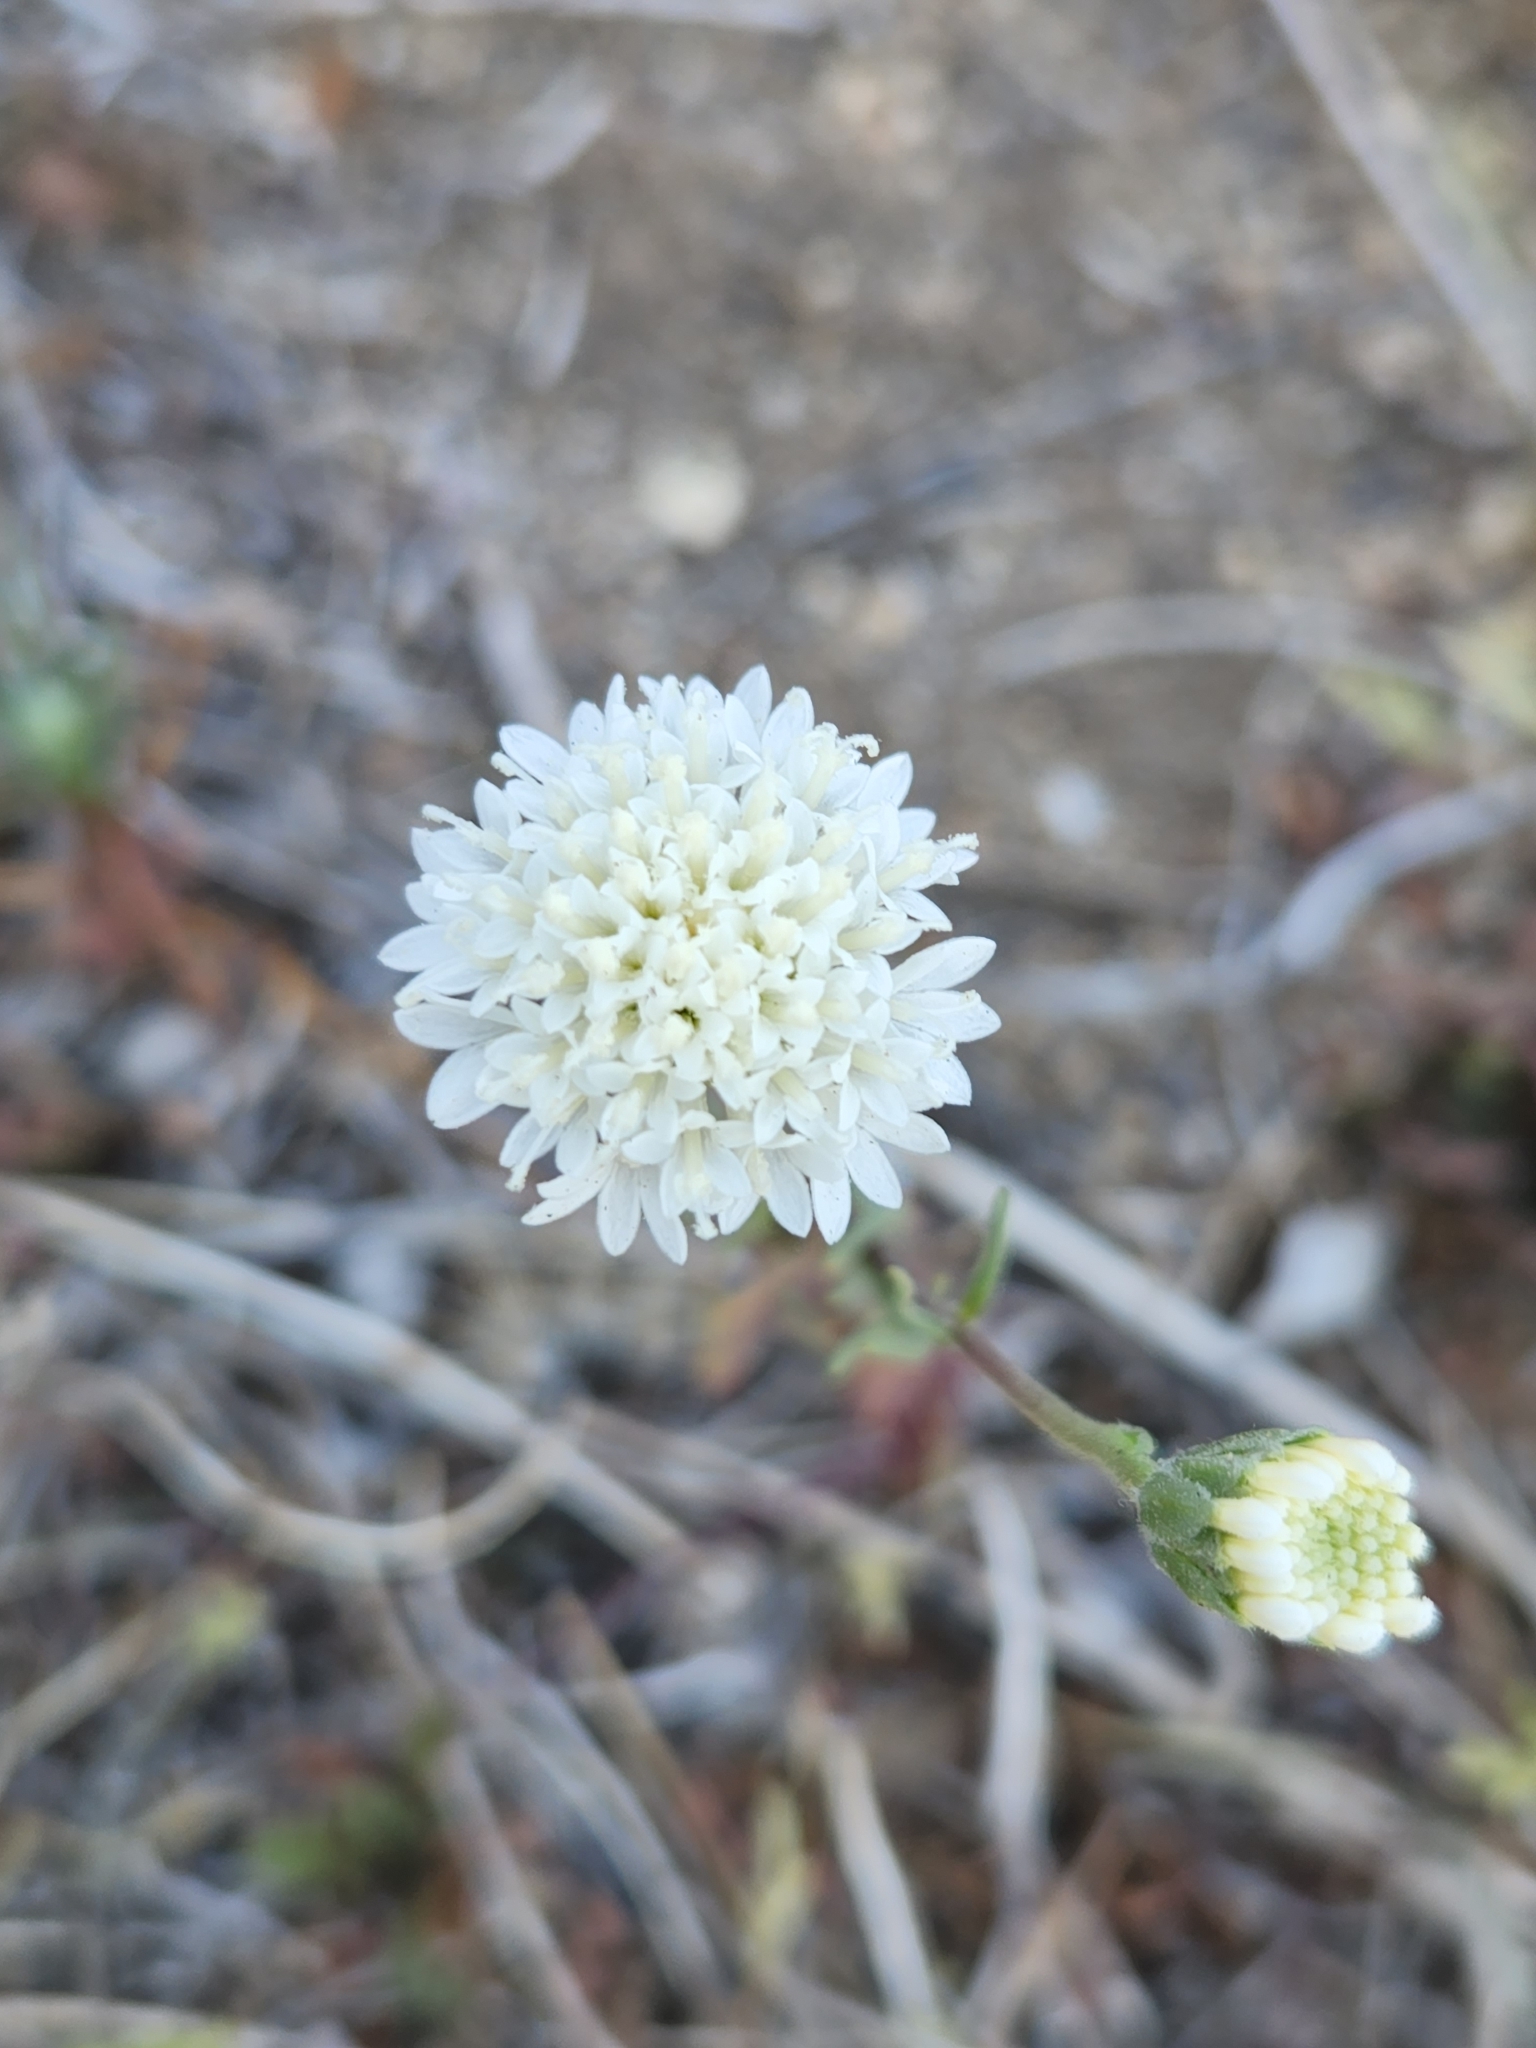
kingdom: Plantae
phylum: Tracheophyta
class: Magnoliopsida
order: Asterales
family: Asteraceae
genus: Chaenactis
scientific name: Chaenactis fremontii
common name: Fremont pincushion
